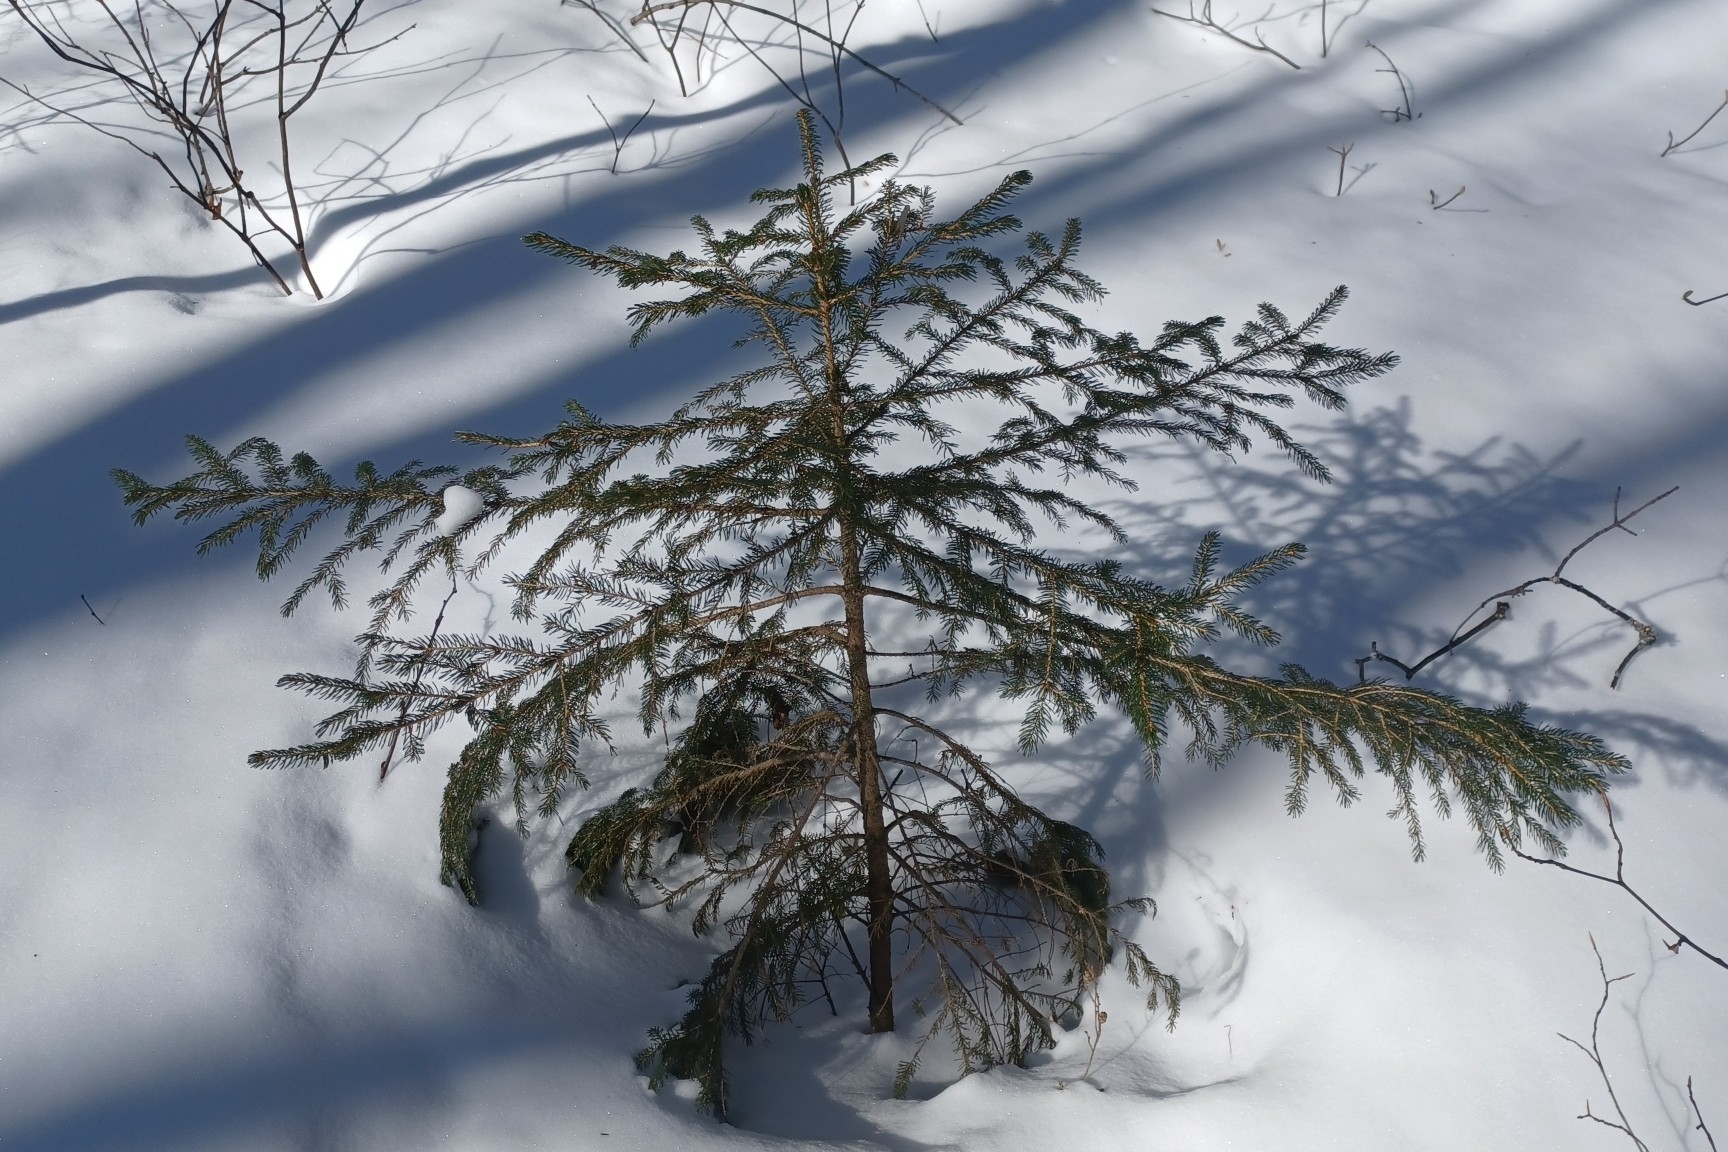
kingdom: Plantae
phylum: Tracheophyta
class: Pinopsida
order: Pinales
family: Pinaceae
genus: Picea
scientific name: Picea rubens
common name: Red spruce
